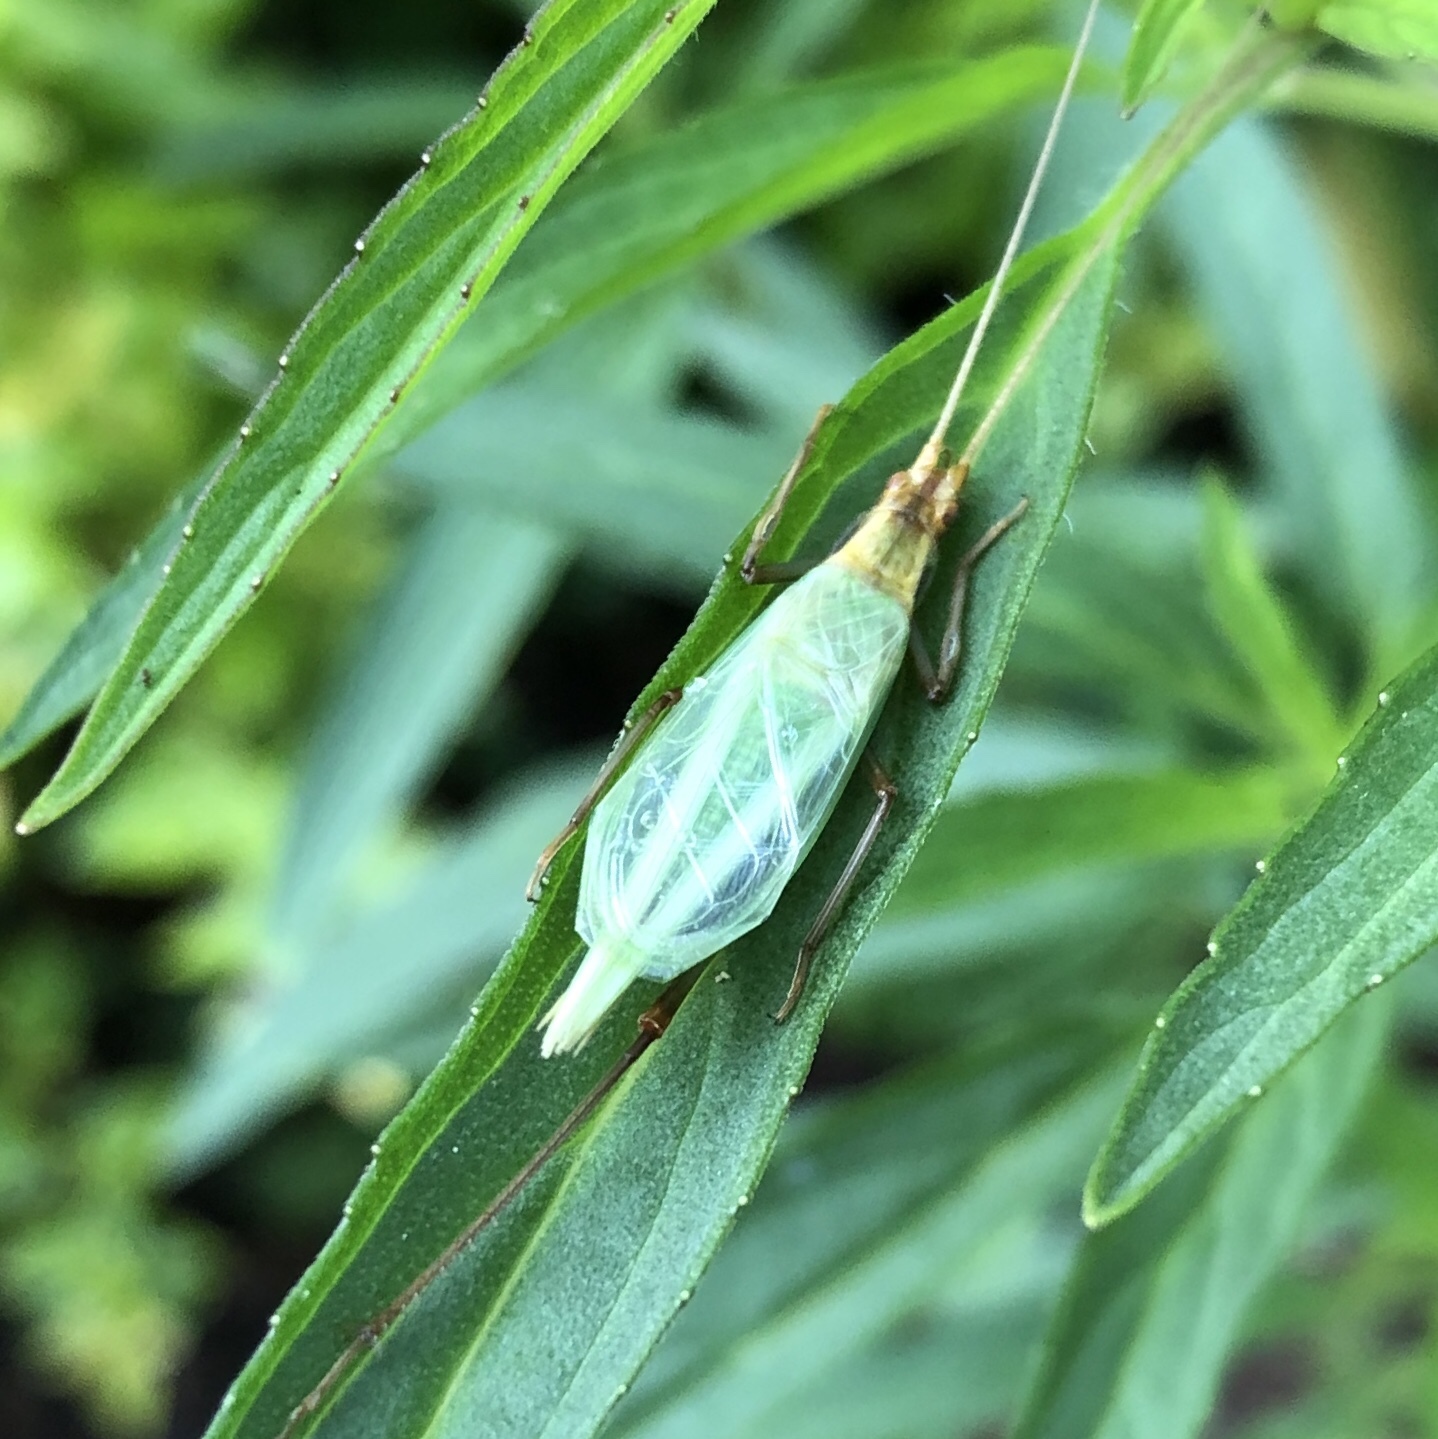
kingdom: Animalia
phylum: Arthropoda
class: Insecta
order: Orthoptera
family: Gryllidae
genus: Oecanthus
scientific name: Oecanthus pini
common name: Pine tree cricket
